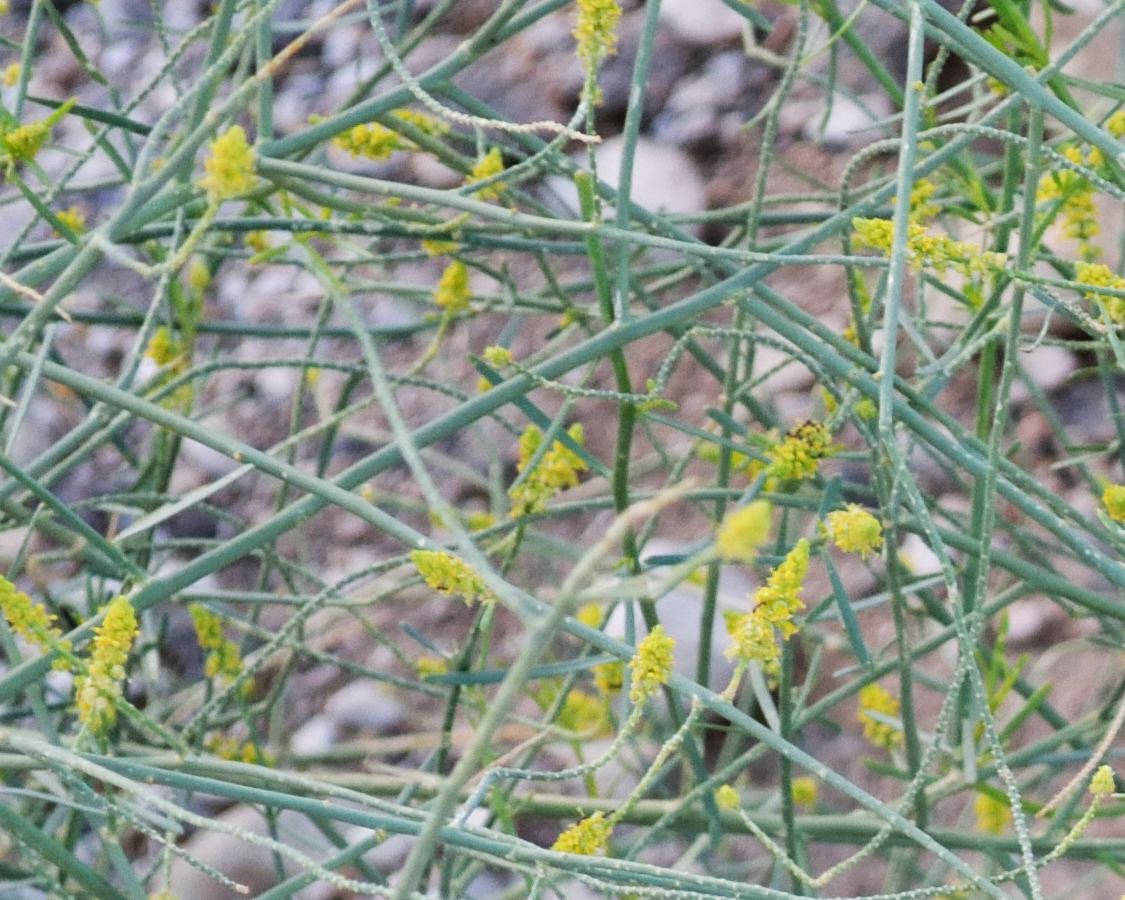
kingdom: Plantae
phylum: Tracheophyta
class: Magnoliopsida
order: Brassicales
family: Resedaceae
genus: Ochradenus
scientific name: Ochradenus baccatus
